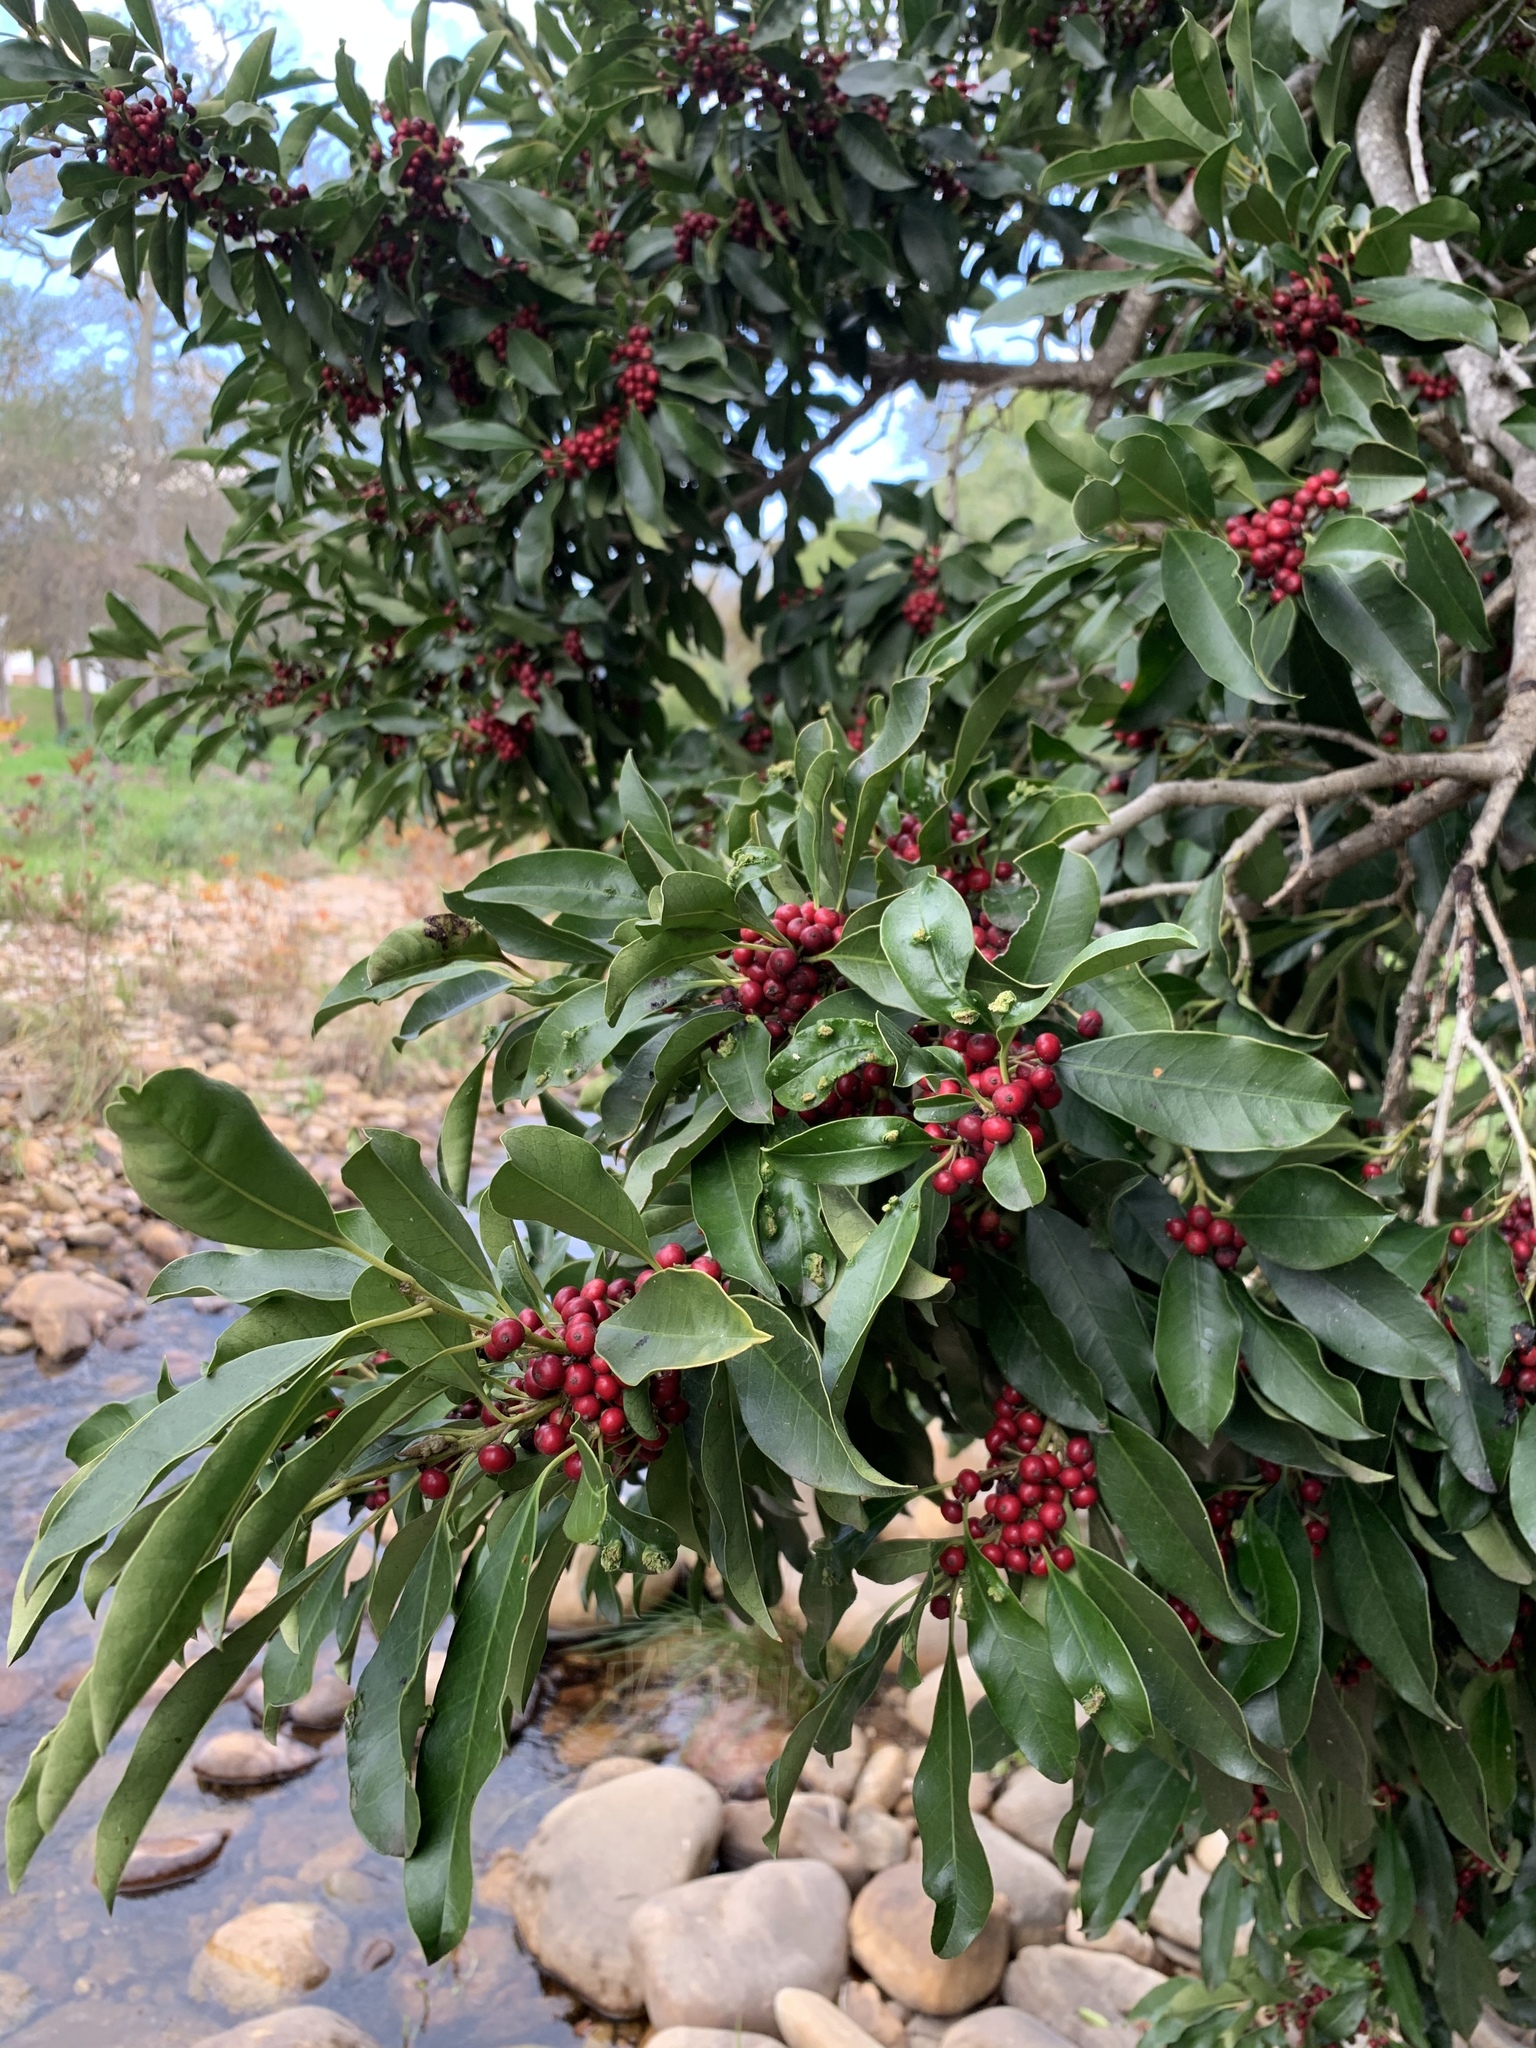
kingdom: Plantae
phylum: Tracheophyta
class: Magnoliopsida
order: Aquifoliales
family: Aquifoliaceae
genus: Ilex
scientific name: Ilex mitis
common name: African holly
